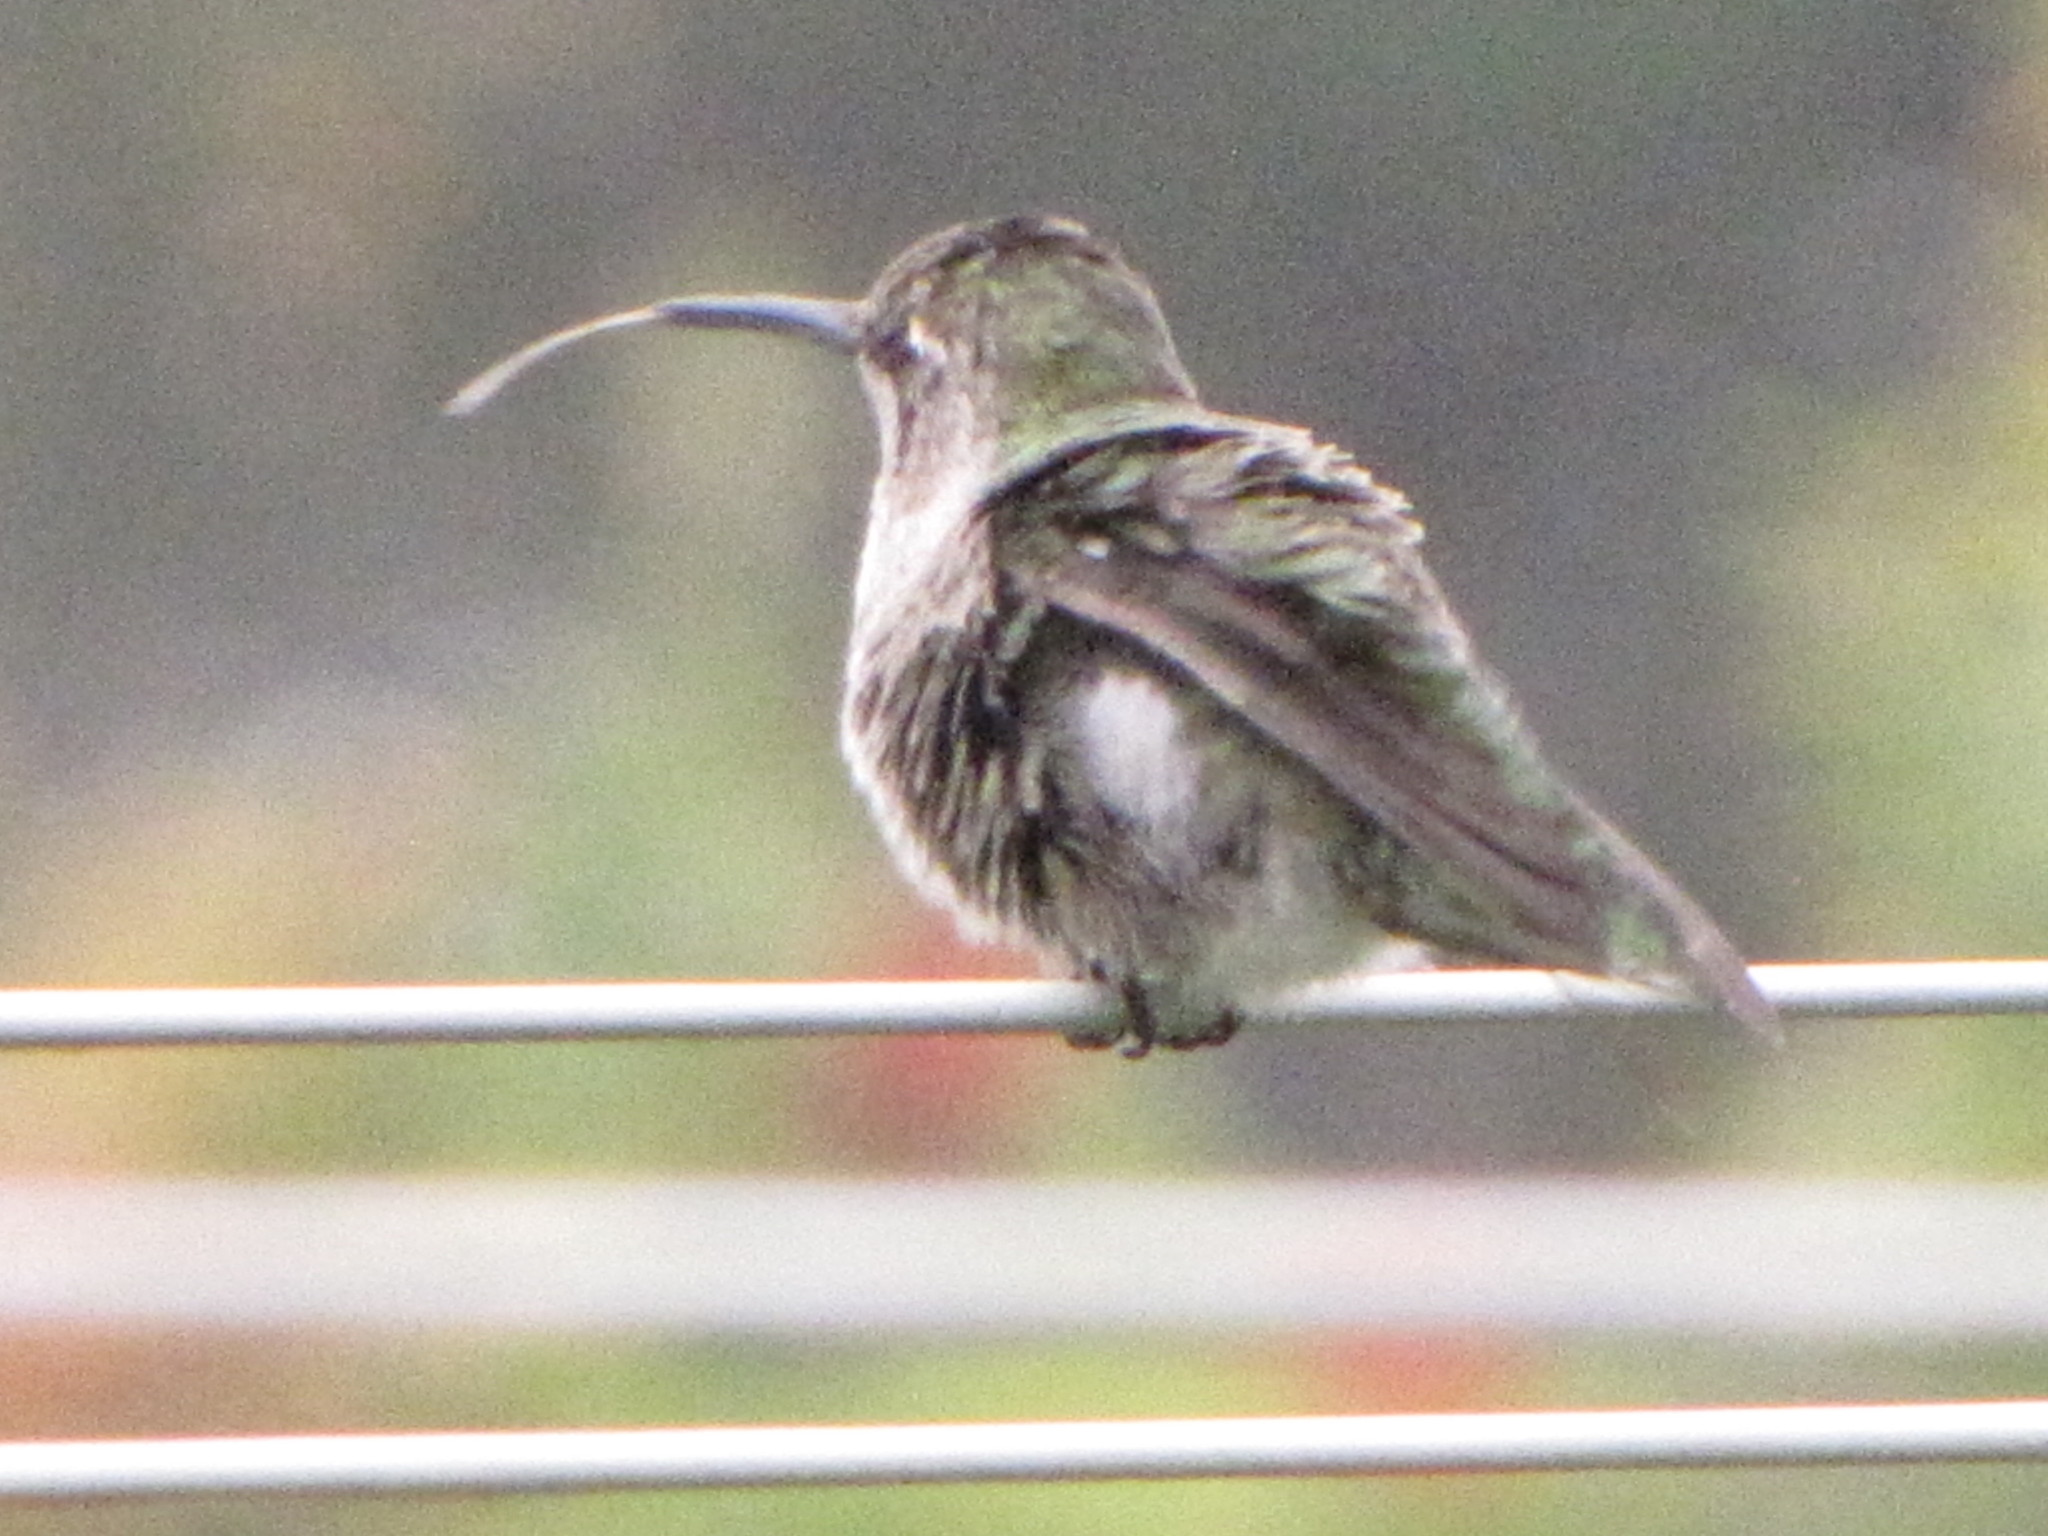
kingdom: Animalia
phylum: Chordata
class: Aves
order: Apodiformes
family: Trochilidae
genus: Calypte
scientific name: Calypte anna
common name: Anna's hummingbird
